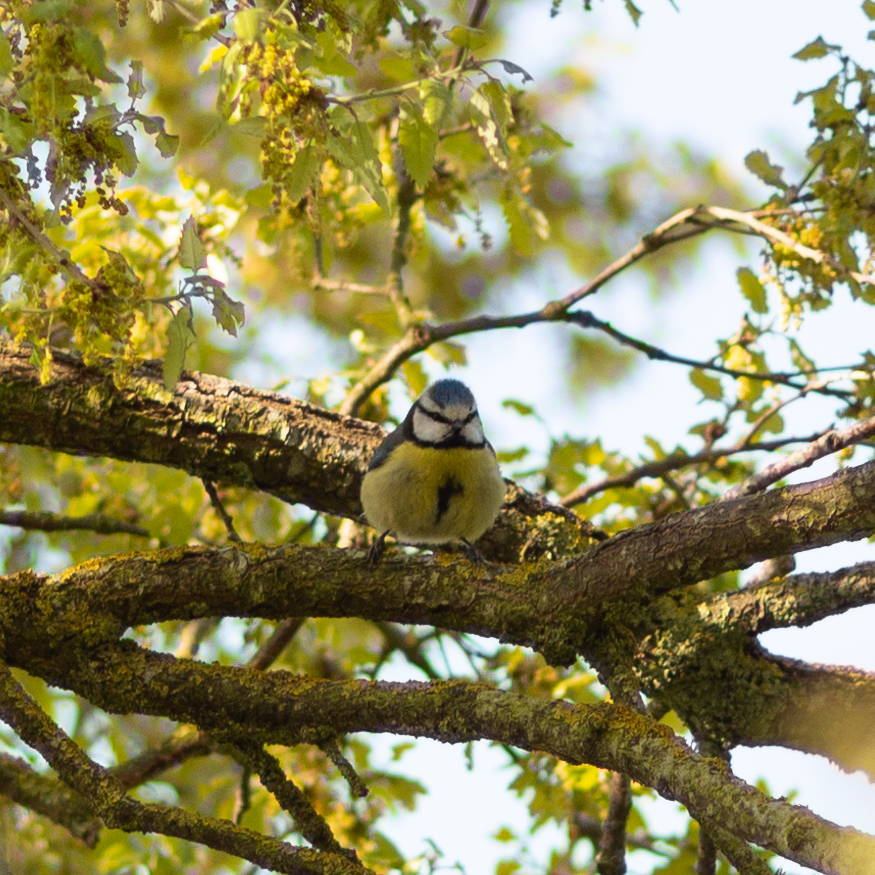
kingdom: Animalia
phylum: Chordata
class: Aves
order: Passeriformes
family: Paridae
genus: Cyanistes
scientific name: Cyanistes caeruleus
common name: Eurasian blue tit
